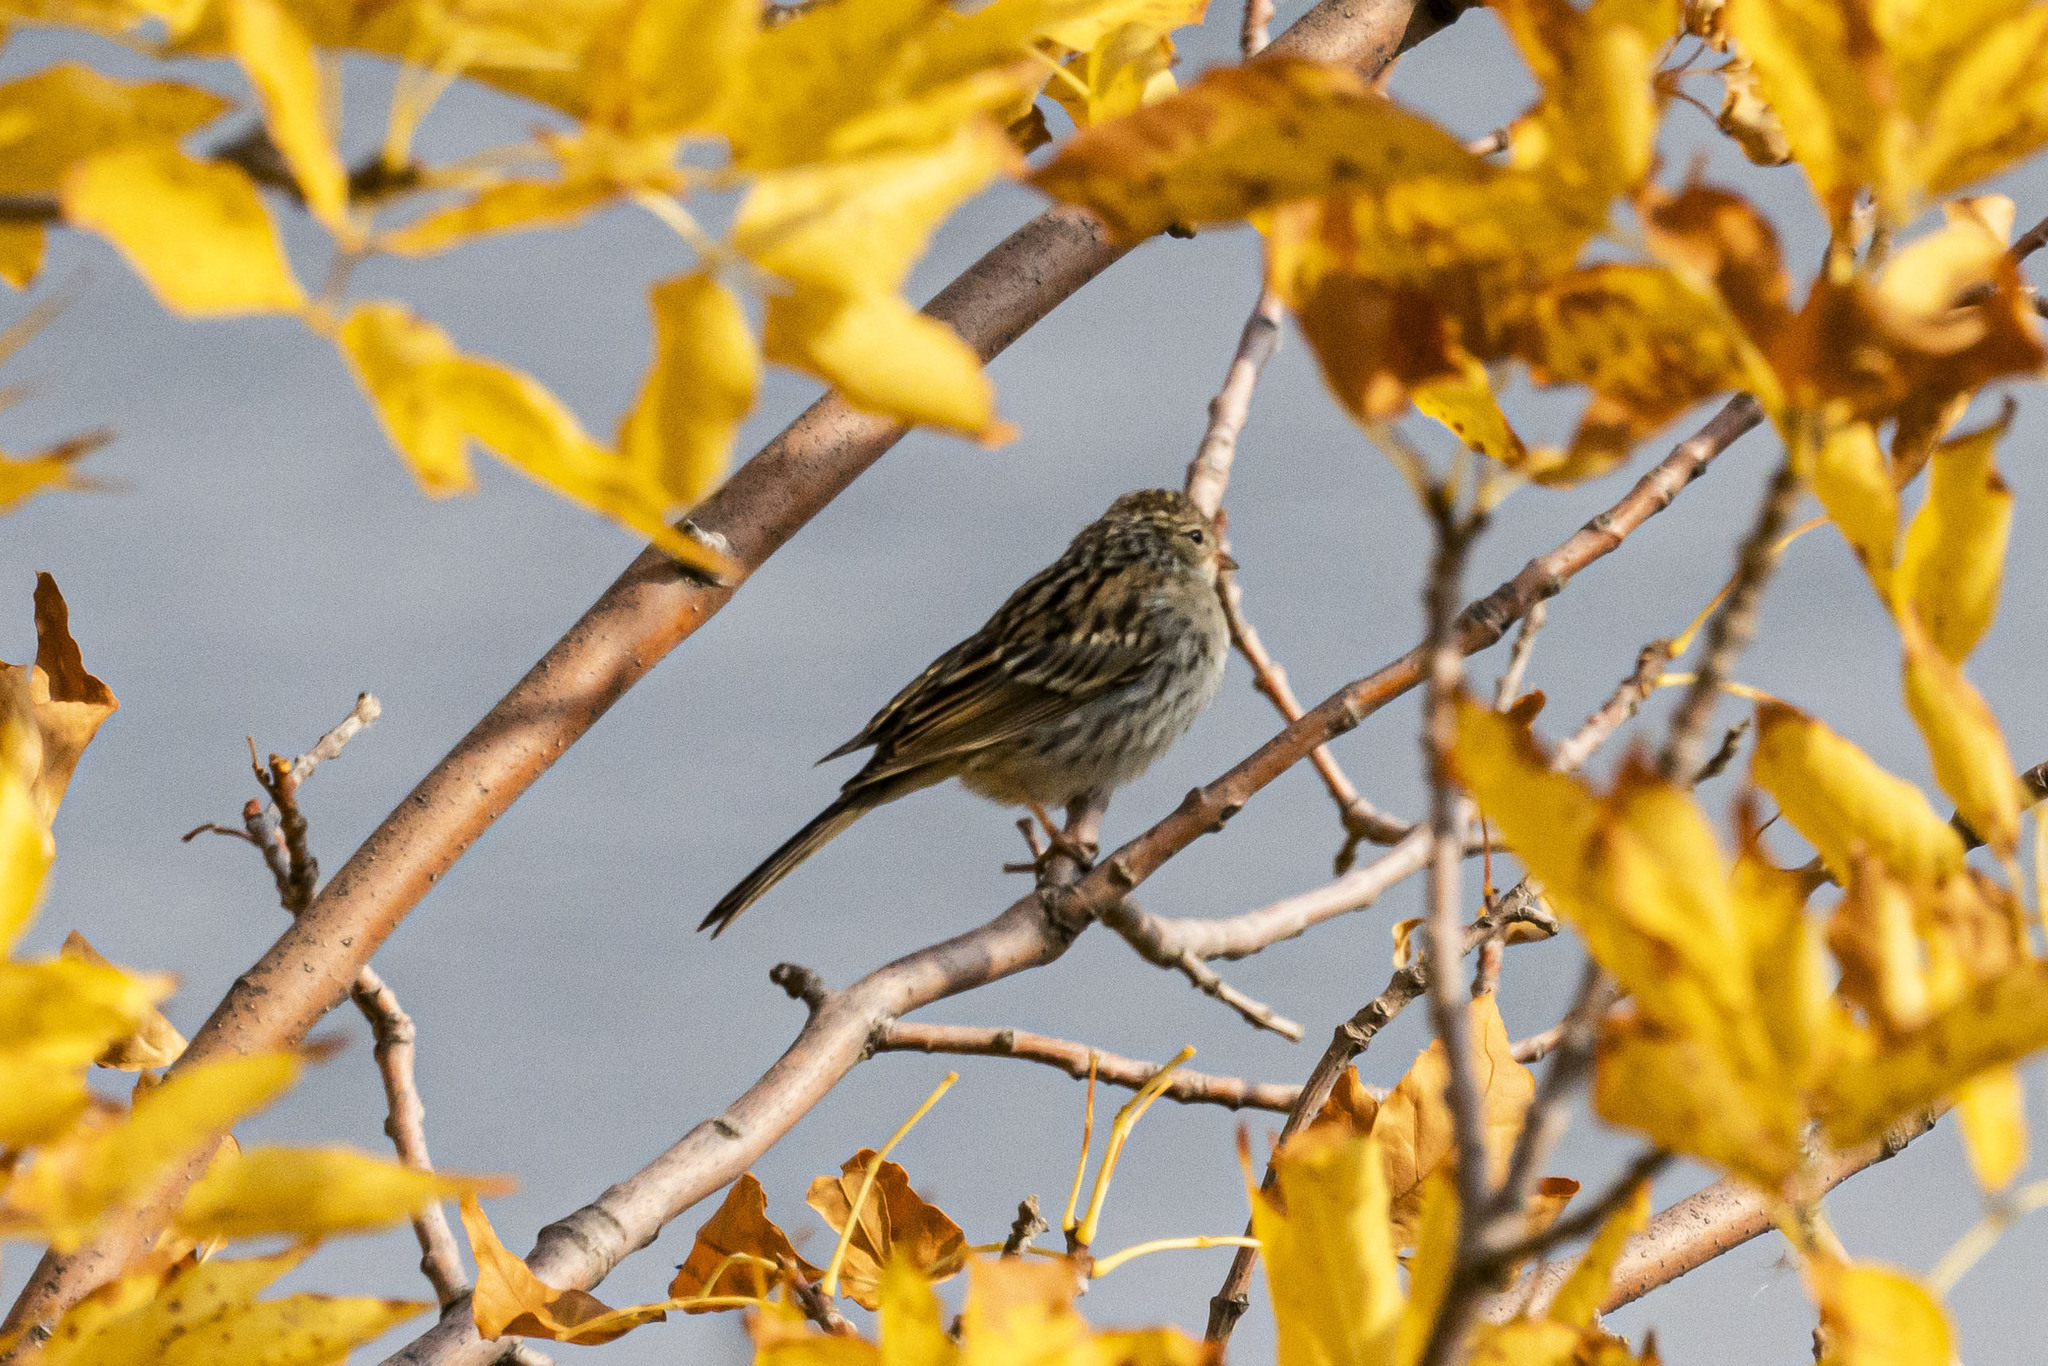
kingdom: Animalia
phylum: Chordata
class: Aves
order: Passeriformes
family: Passerellidae
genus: Spizella
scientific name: Spizella passerina
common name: Chipping sparrow
